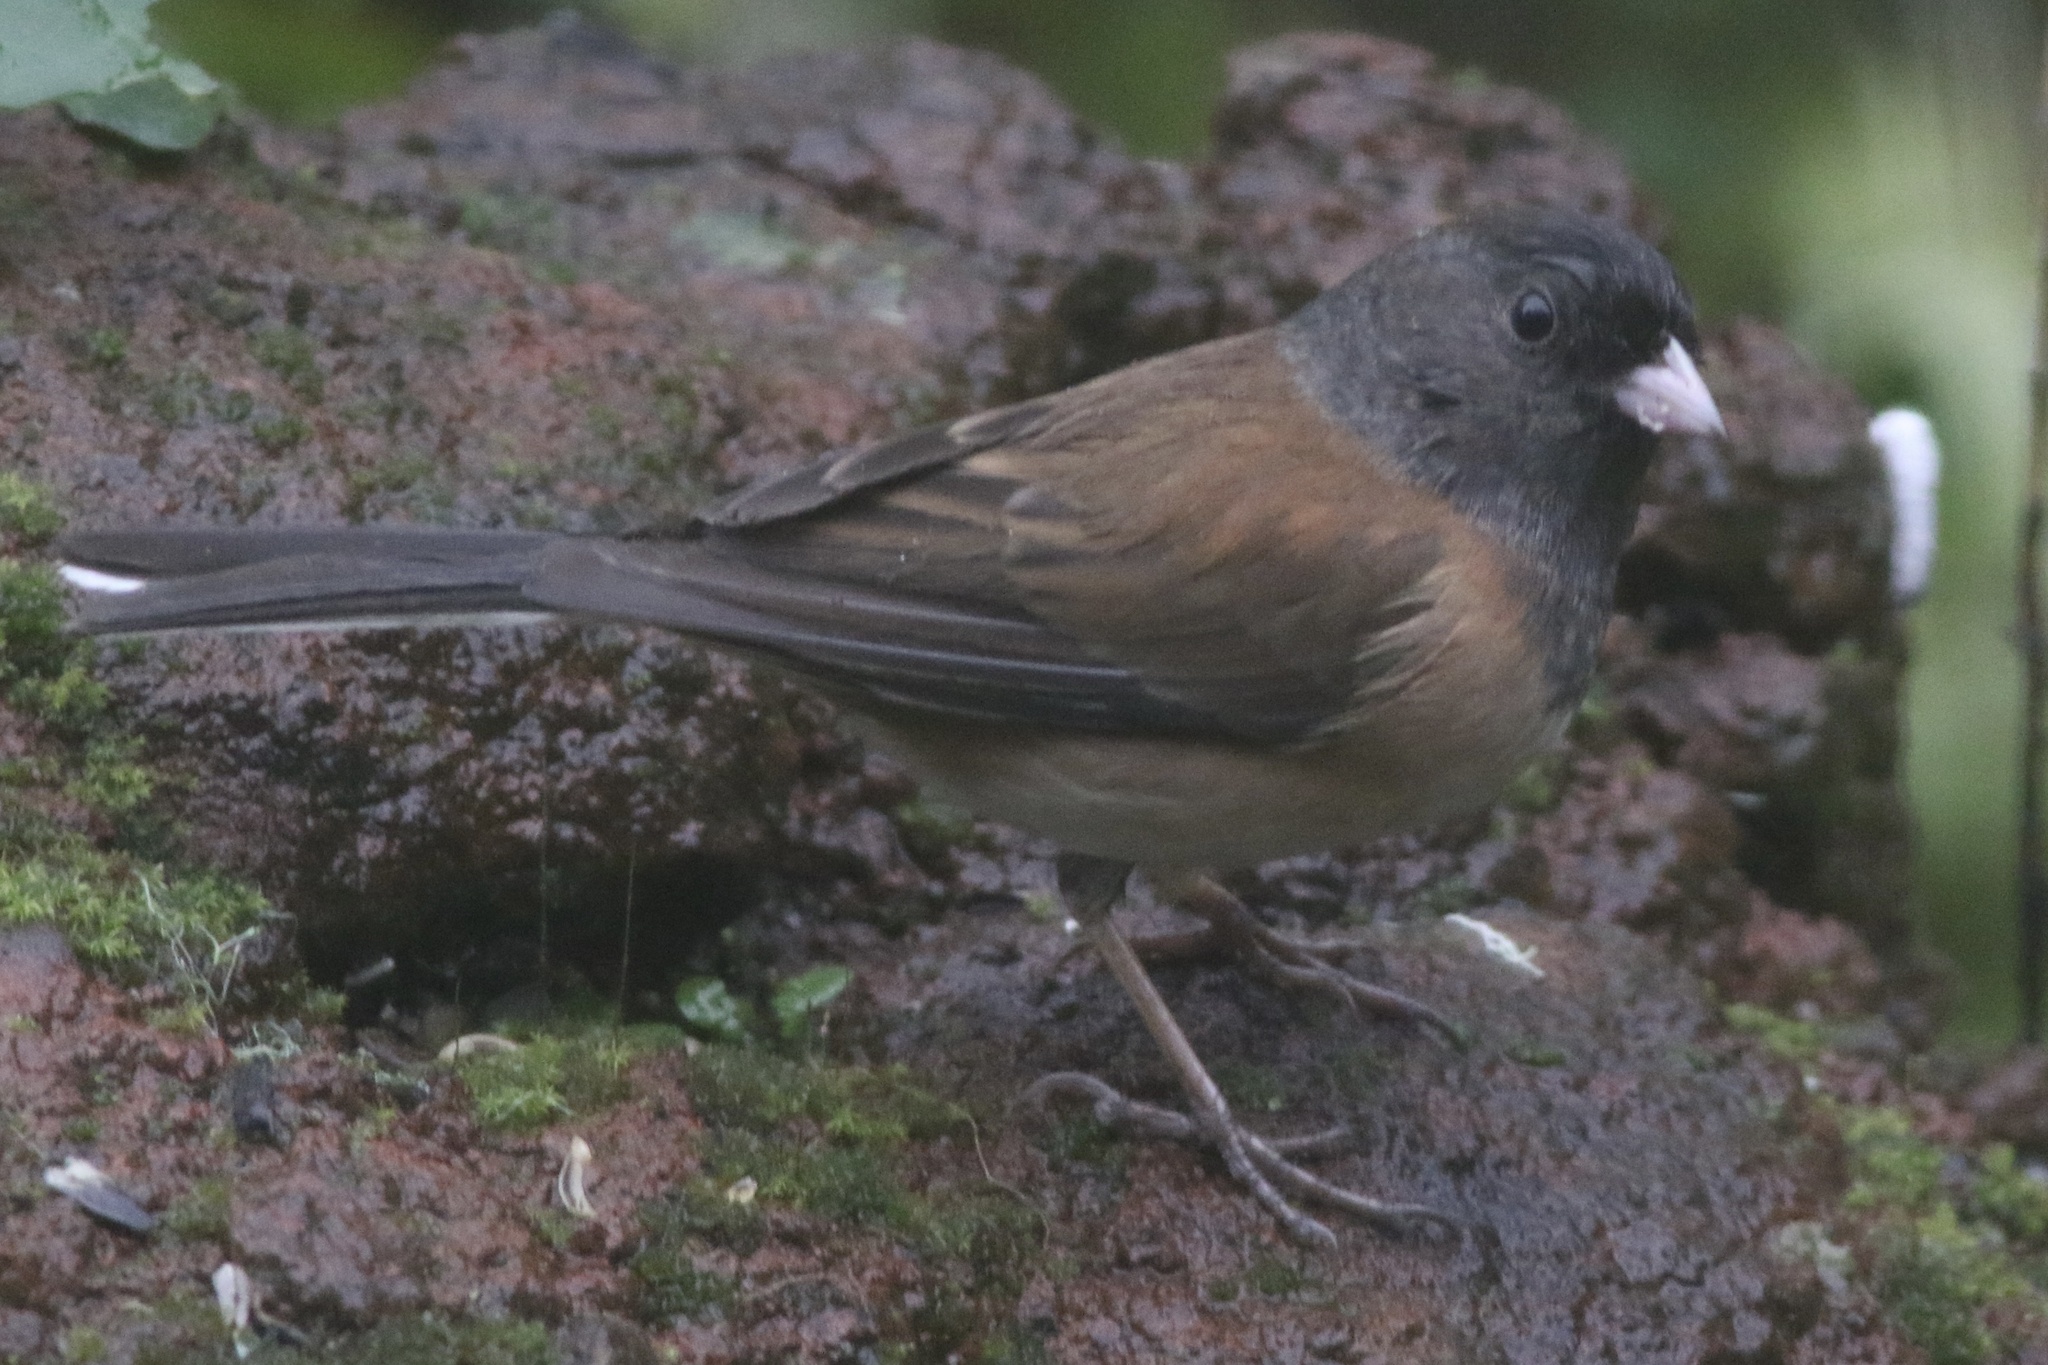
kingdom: Animalia
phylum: Chordata
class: Aves
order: Passeriformes
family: Passerellidae
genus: Junco
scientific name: Junco hyemalis
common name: Dark-eyed junco
